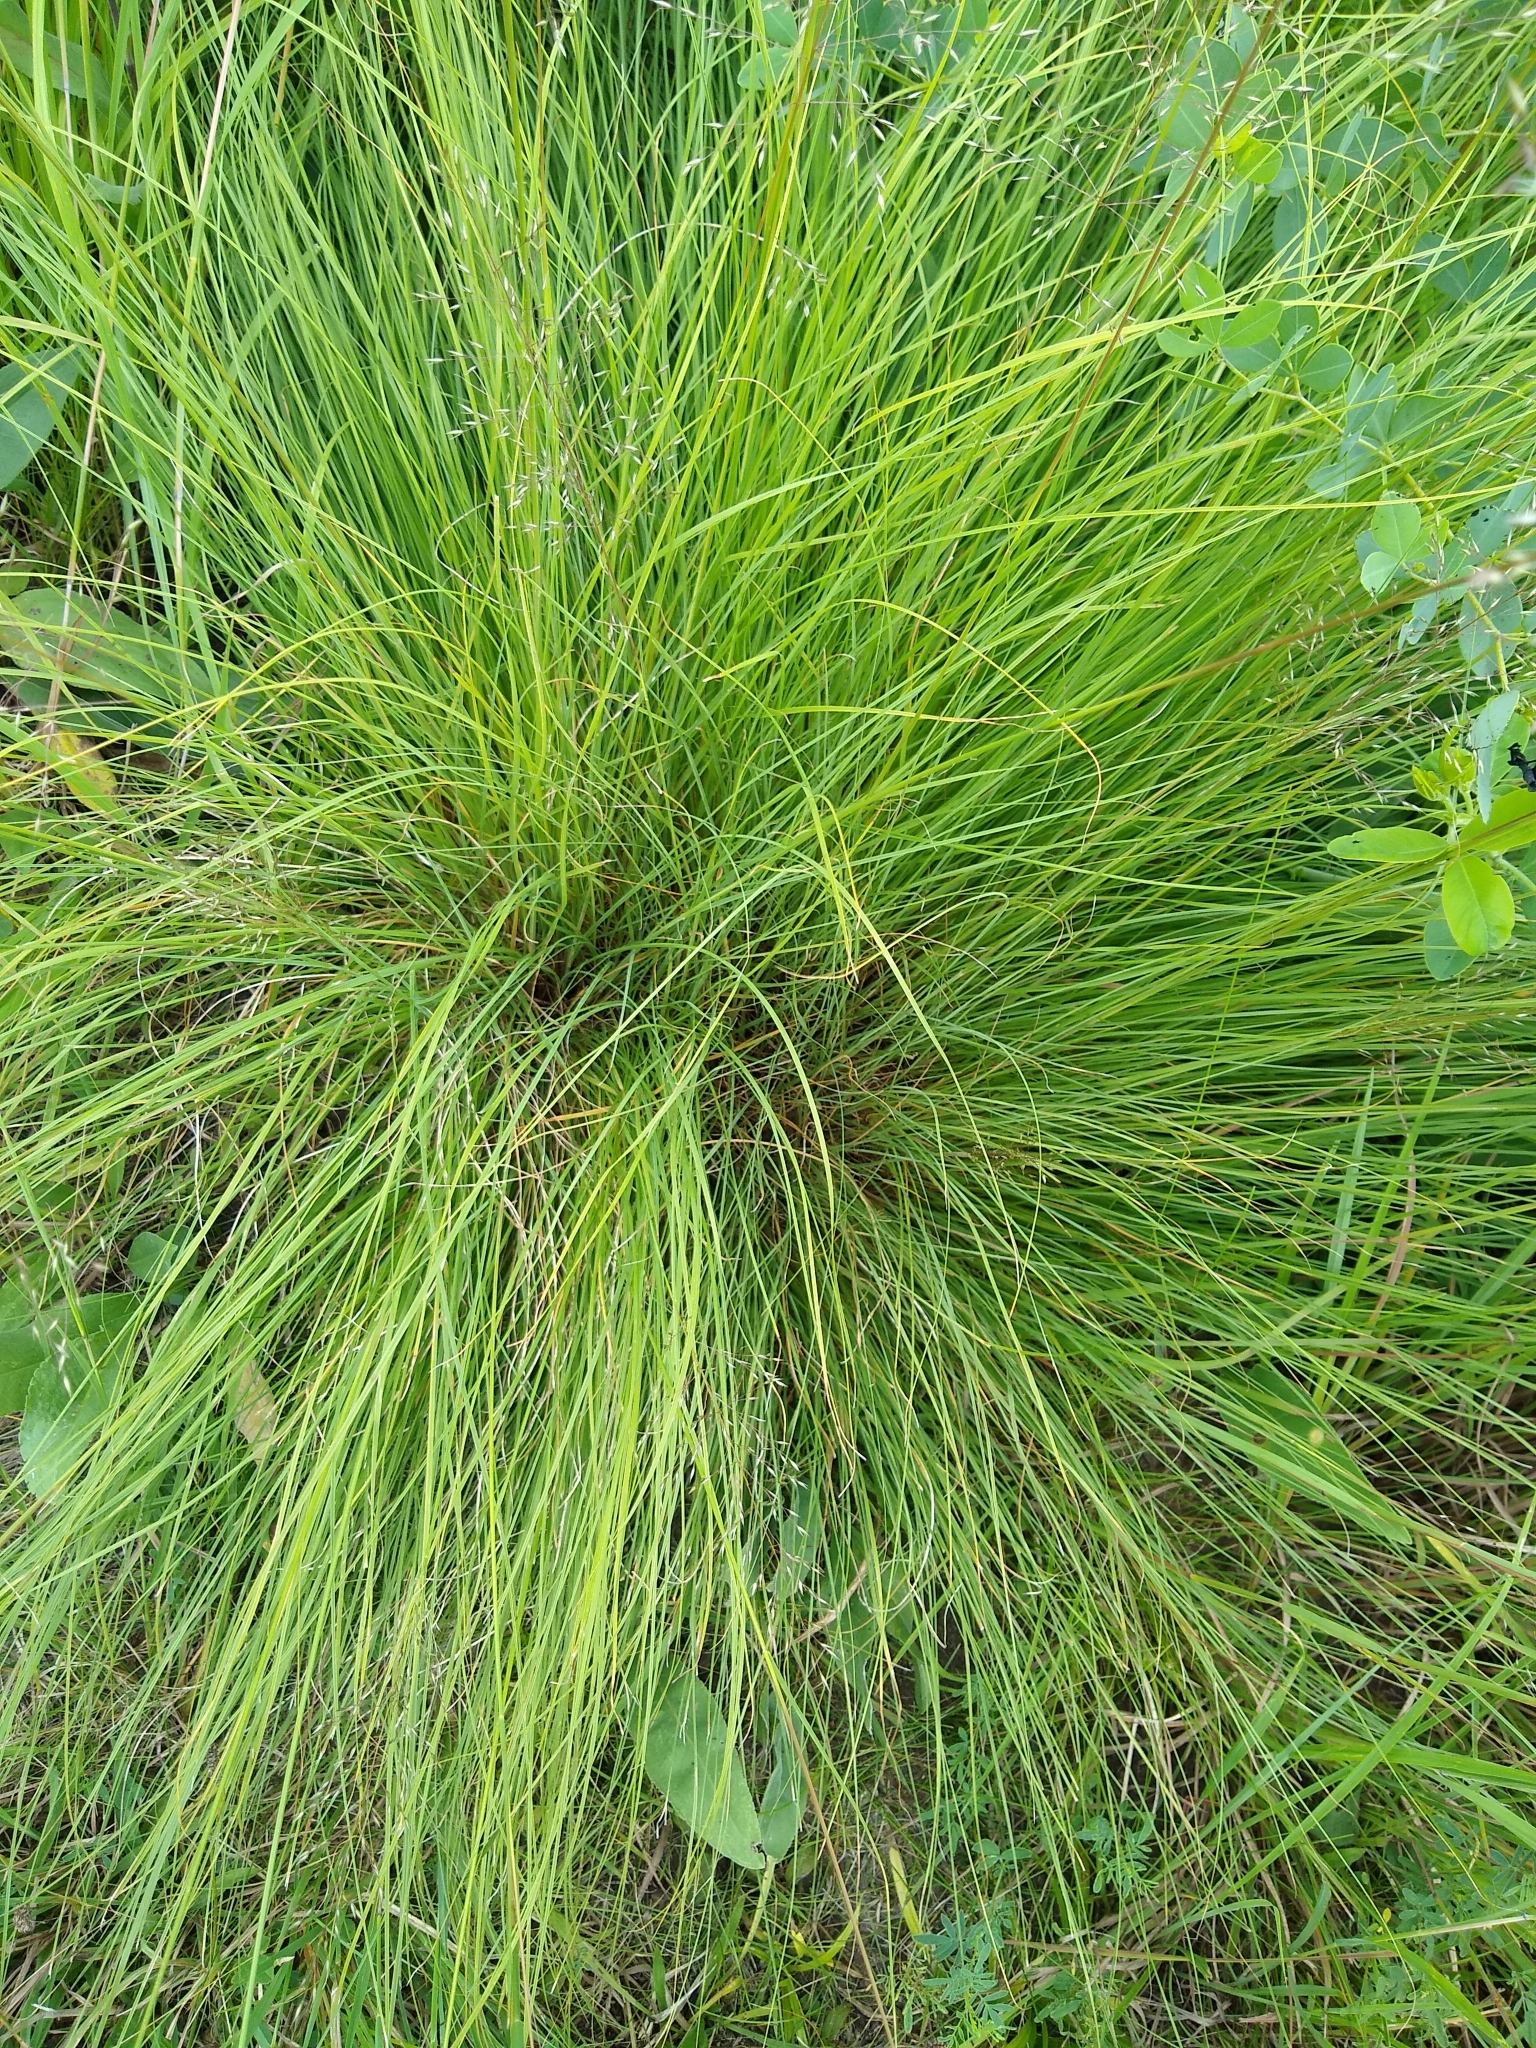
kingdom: Plantae
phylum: Tracheophyta
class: Liliopsida
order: Poales
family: Poaceae
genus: Sporobolus
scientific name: Sporobolus heterolepis
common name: Prairie dropseed
